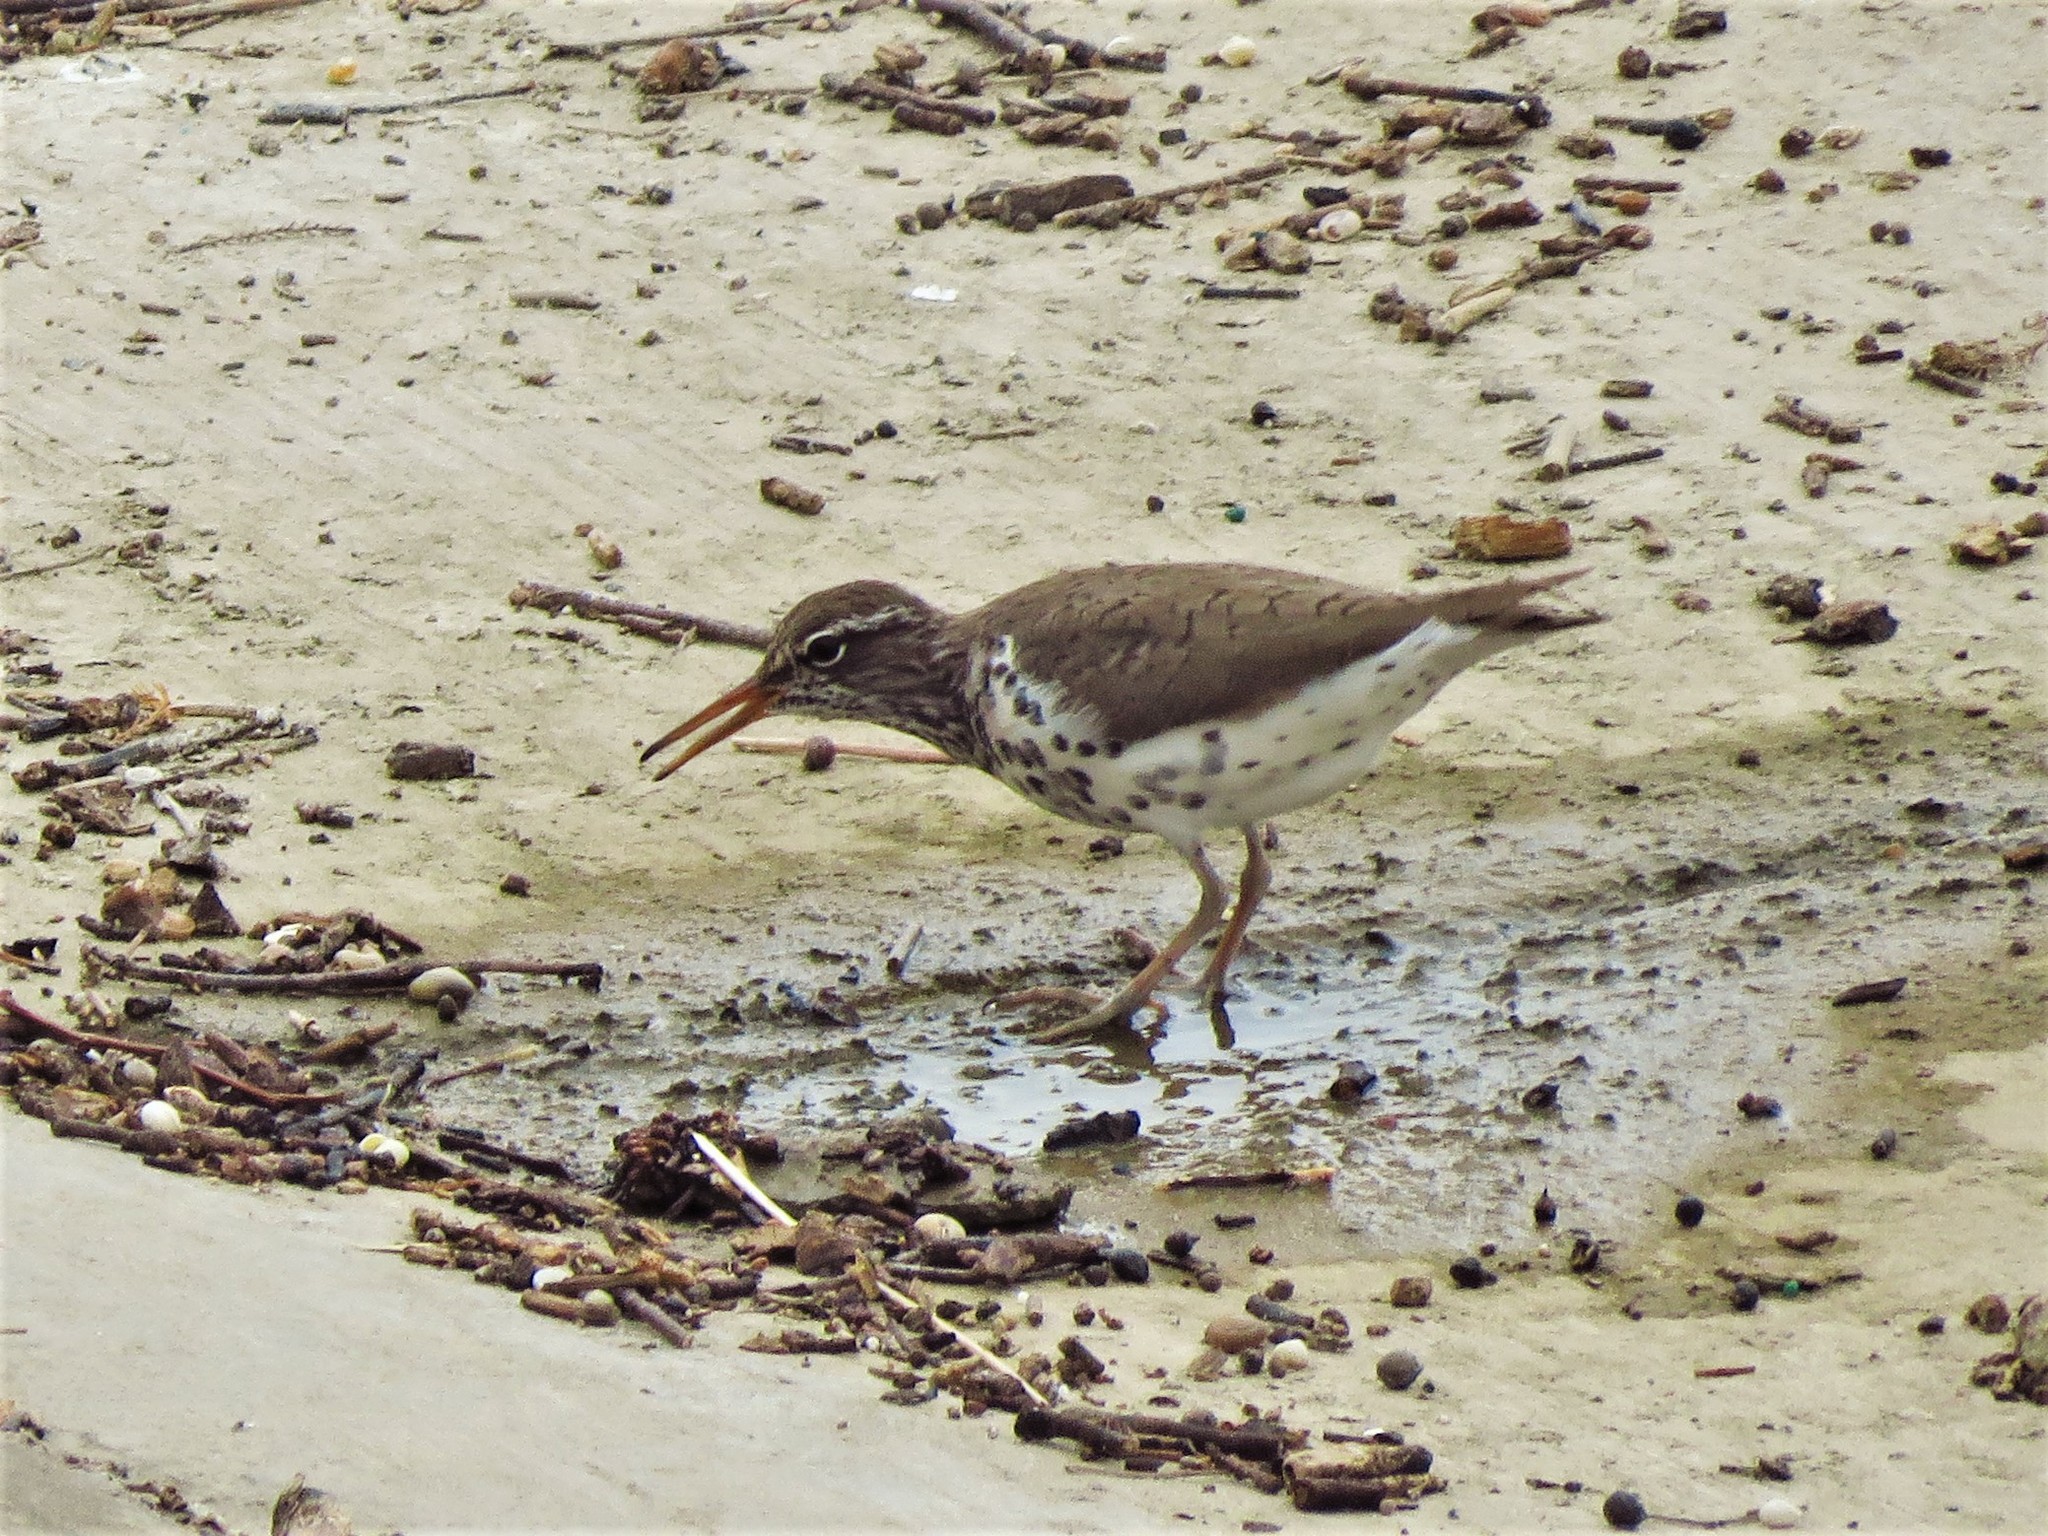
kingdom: Animalia
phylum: Chordata
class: Aves
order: Charadriiformes
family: Scolopacidae
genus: Actitis
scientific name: Actitis macularius
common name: Spotted sandpiper
